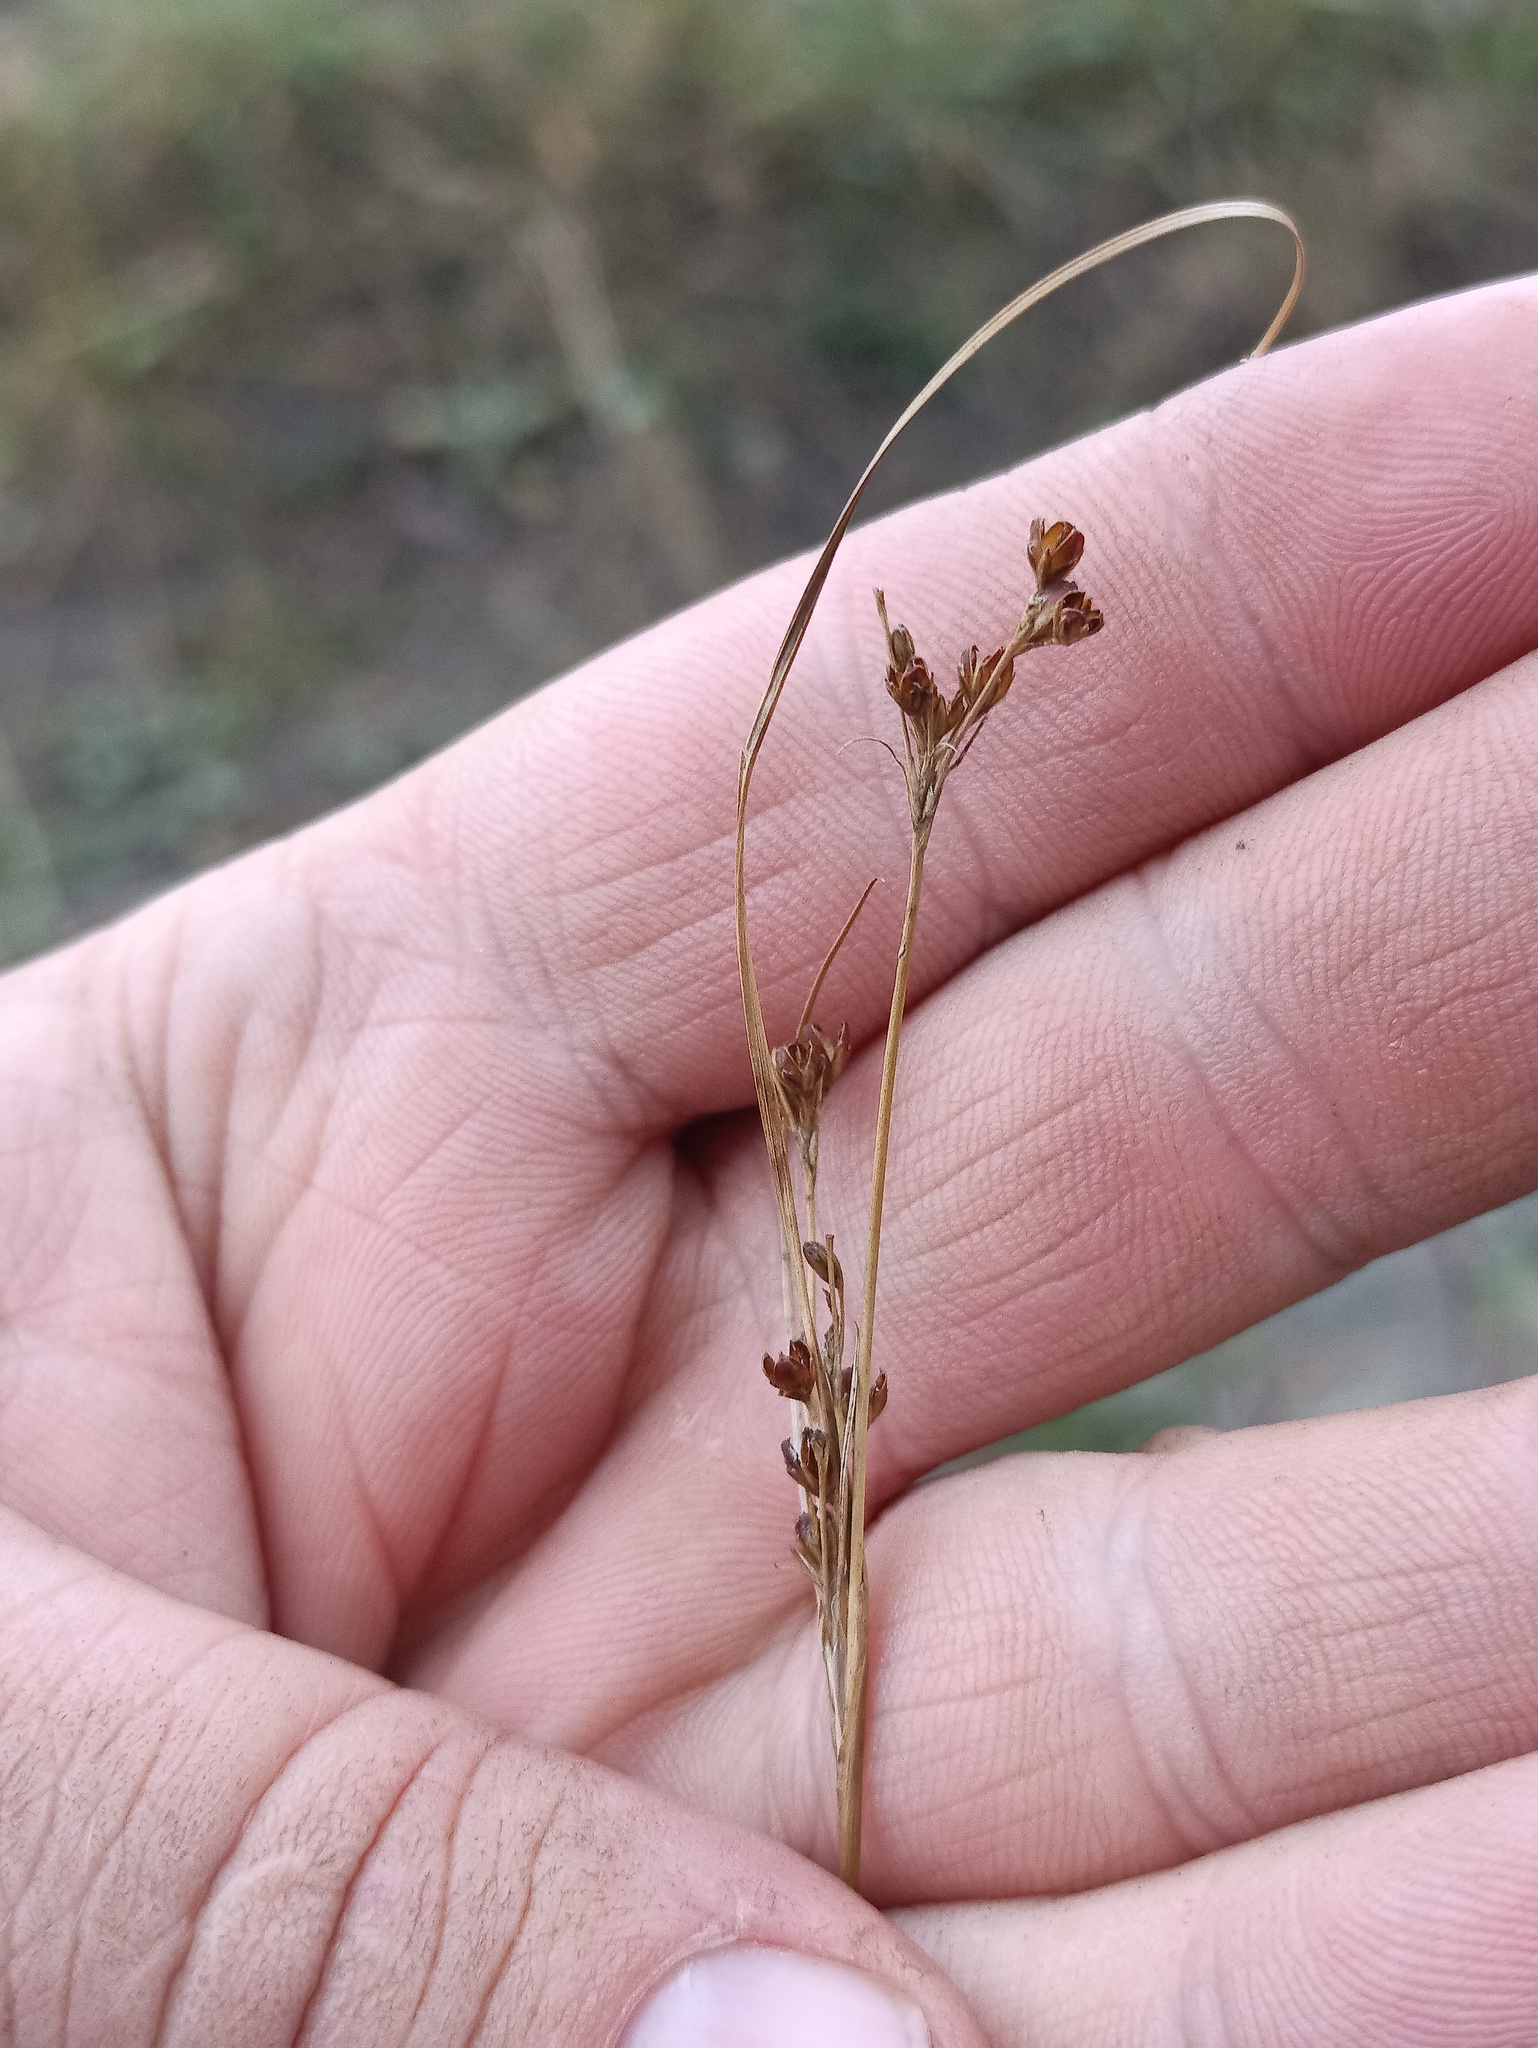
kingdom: Plantae
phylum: Tracheophyta
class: Liliopsida
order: Poales
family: Juncaceae
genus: Juncus
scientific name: Juncus compressus
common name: Round-fruited rush
